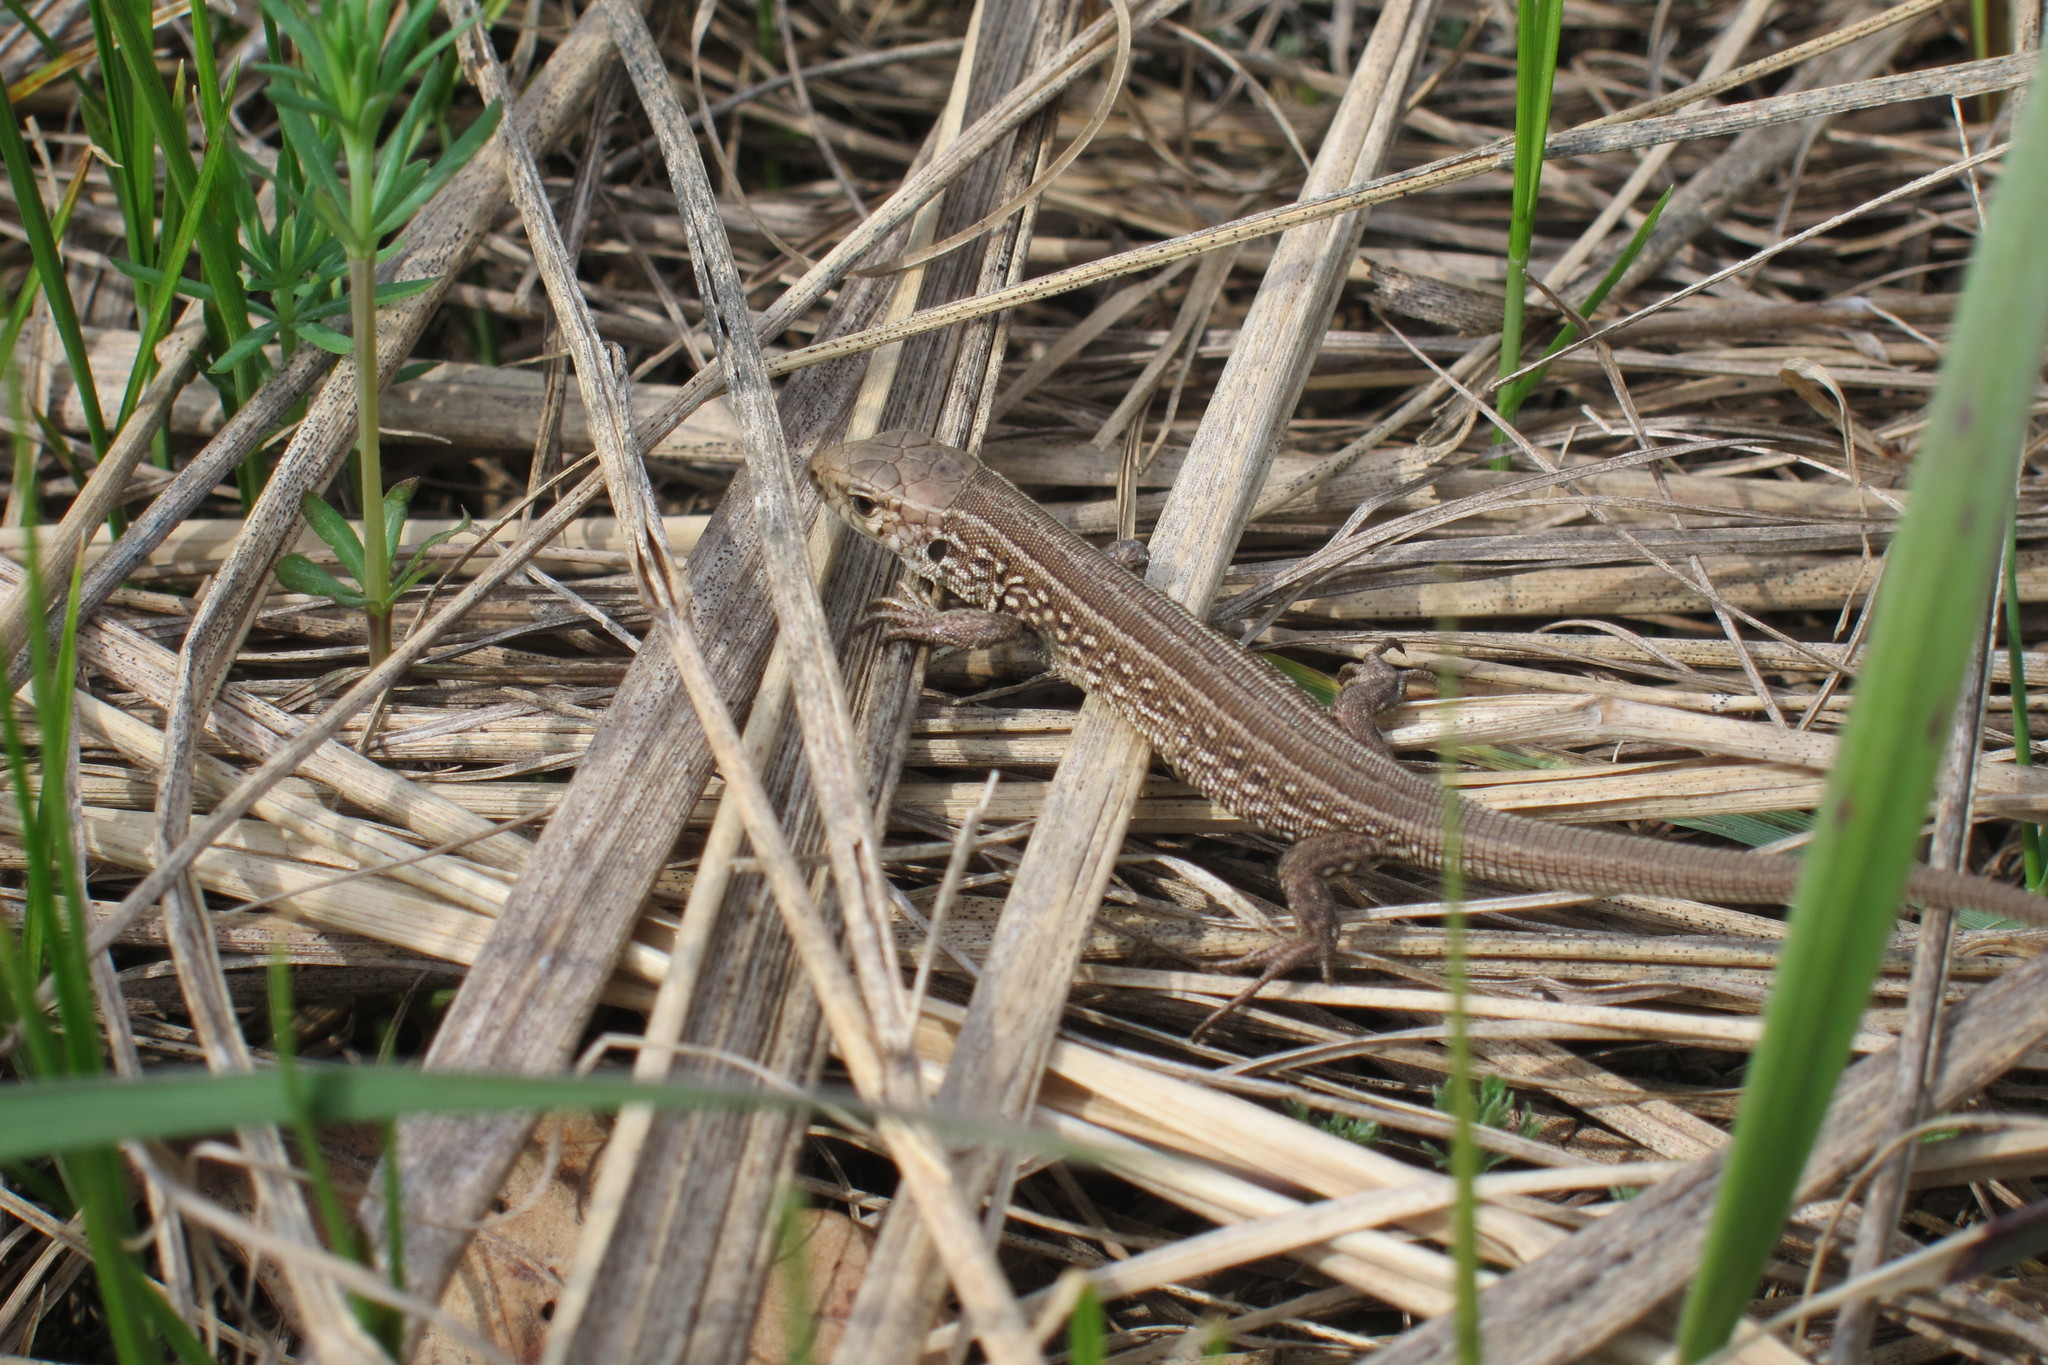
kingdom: Animalia
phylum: Chordata
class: Squamata
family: Lacertidae
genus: Lacerta
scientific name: Lacerta agilis
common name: Sand lizard
